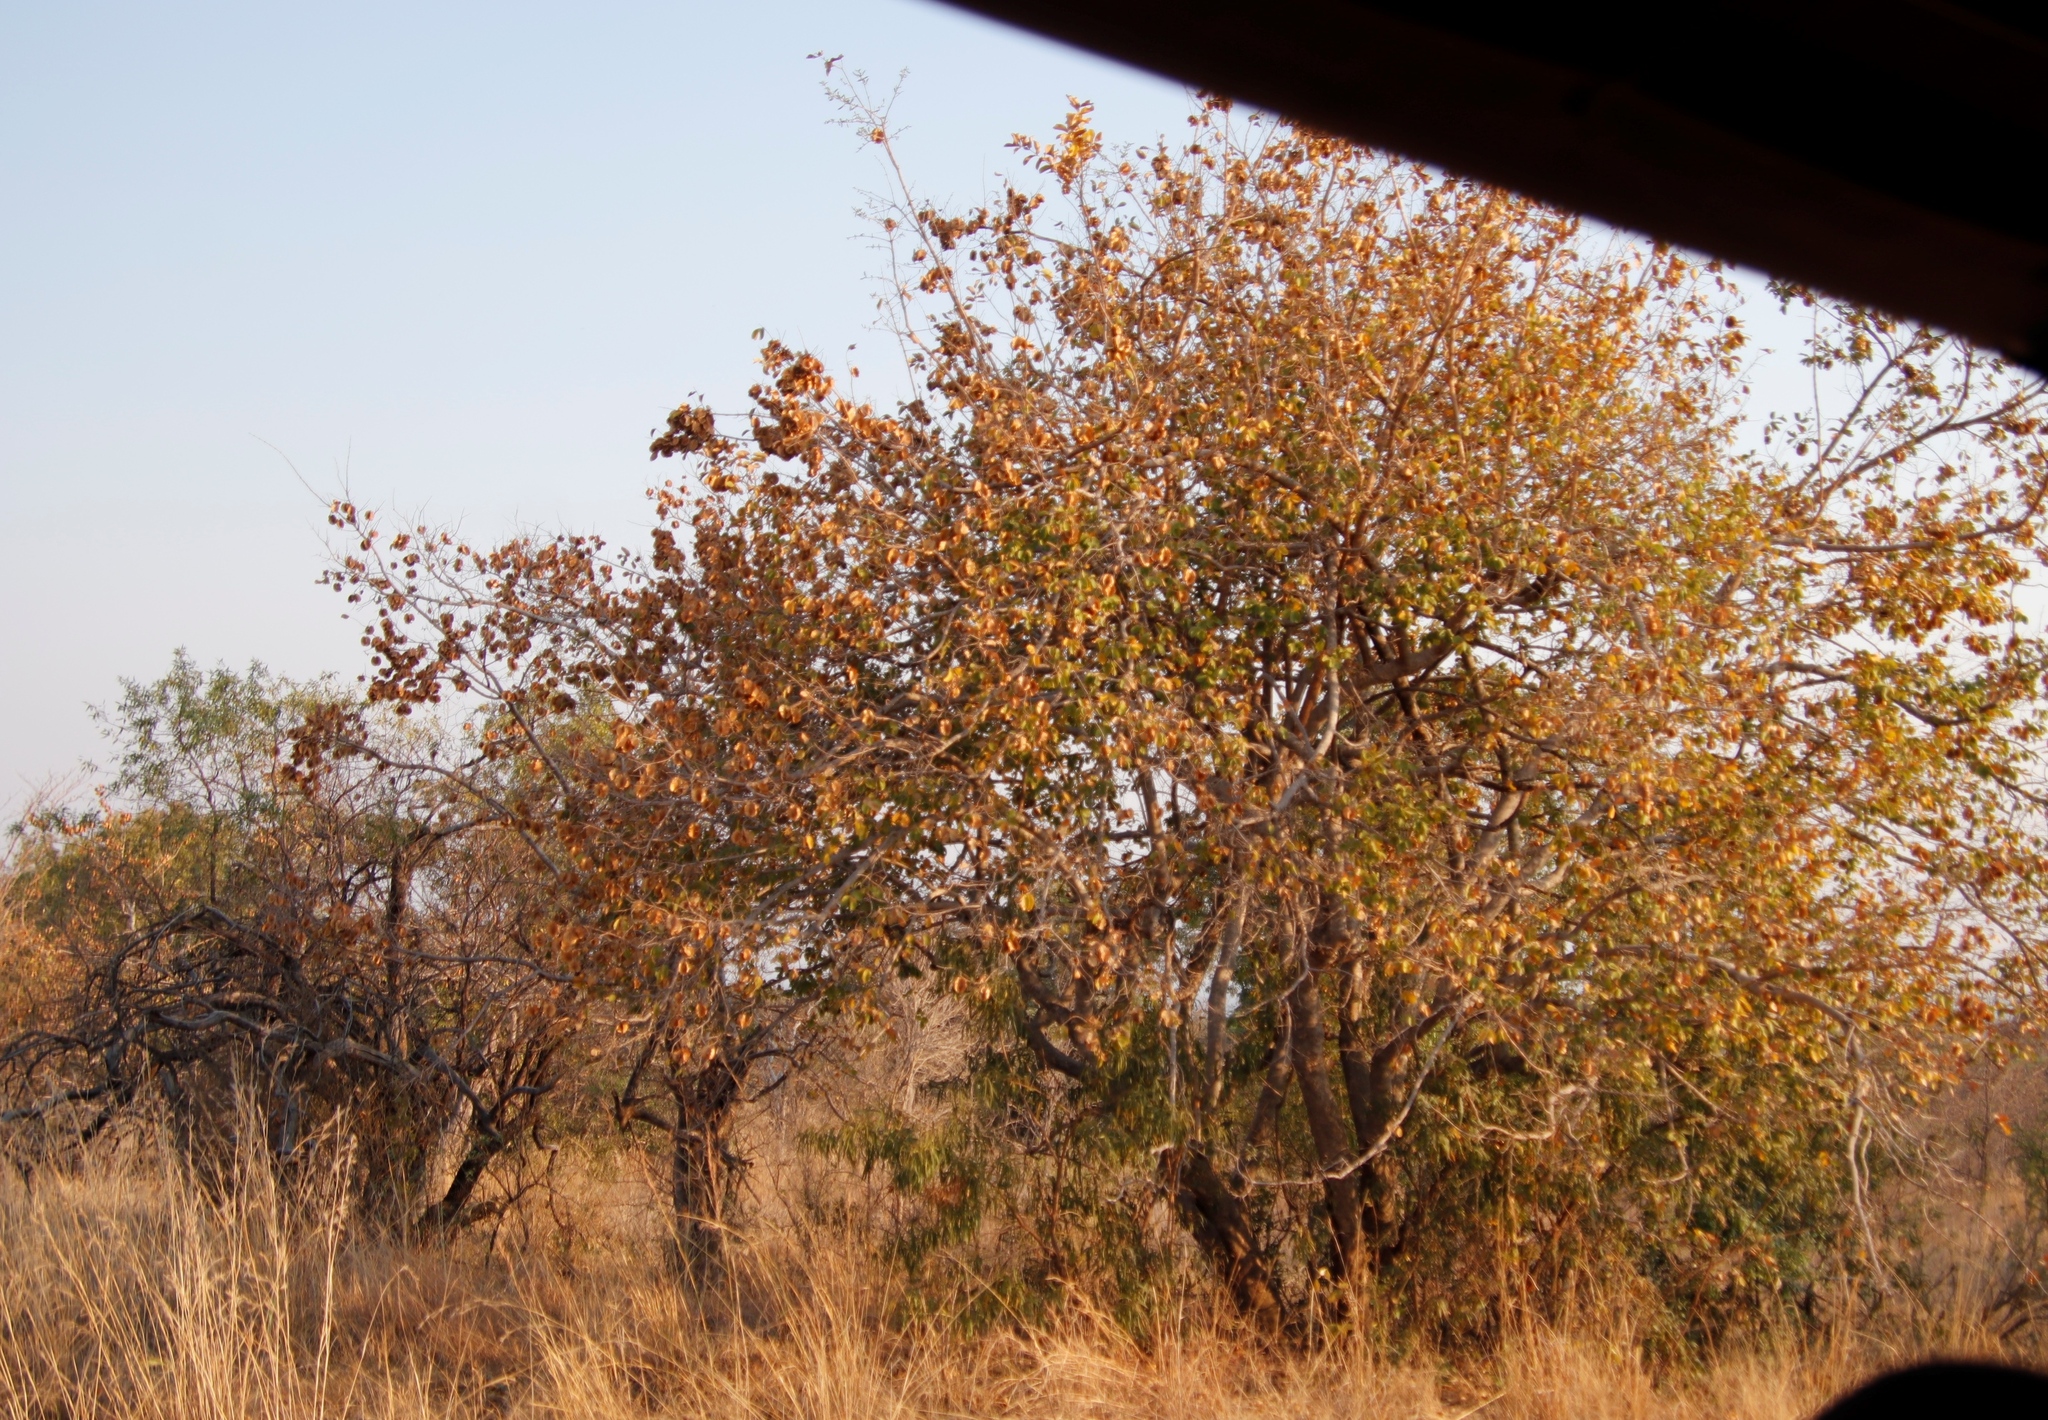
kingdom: Plantae
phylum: Tracheophyta
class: Magnoliopsida
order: Myrtales
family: Combretaceae
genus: Combretum
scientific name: Combretum zeyheri
